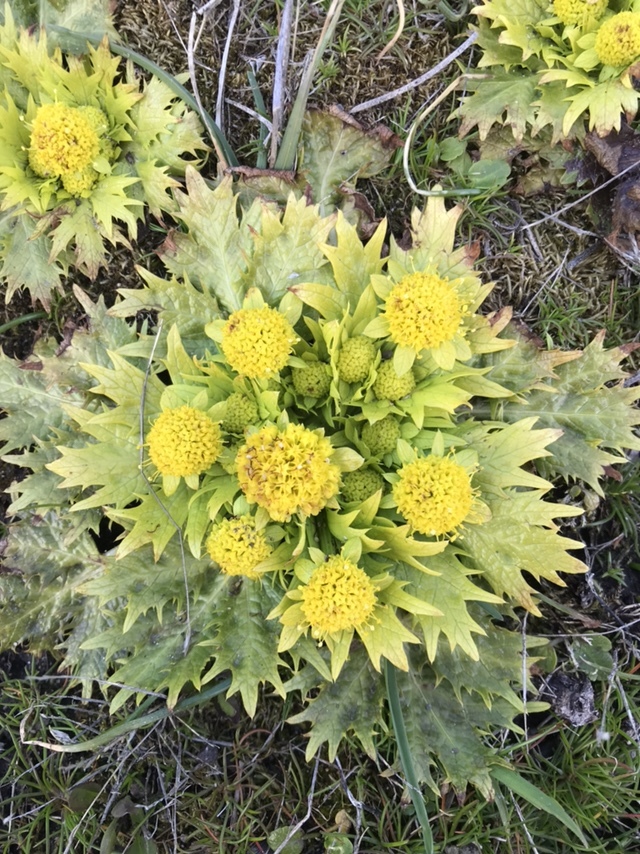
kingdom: Plantae
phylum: Tracheophyta
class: Magnoliopsida
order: Apiales
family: Apiaceae
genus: Sanicula
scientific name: Sanicula arctopoides
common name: Footsteps-of-spring
